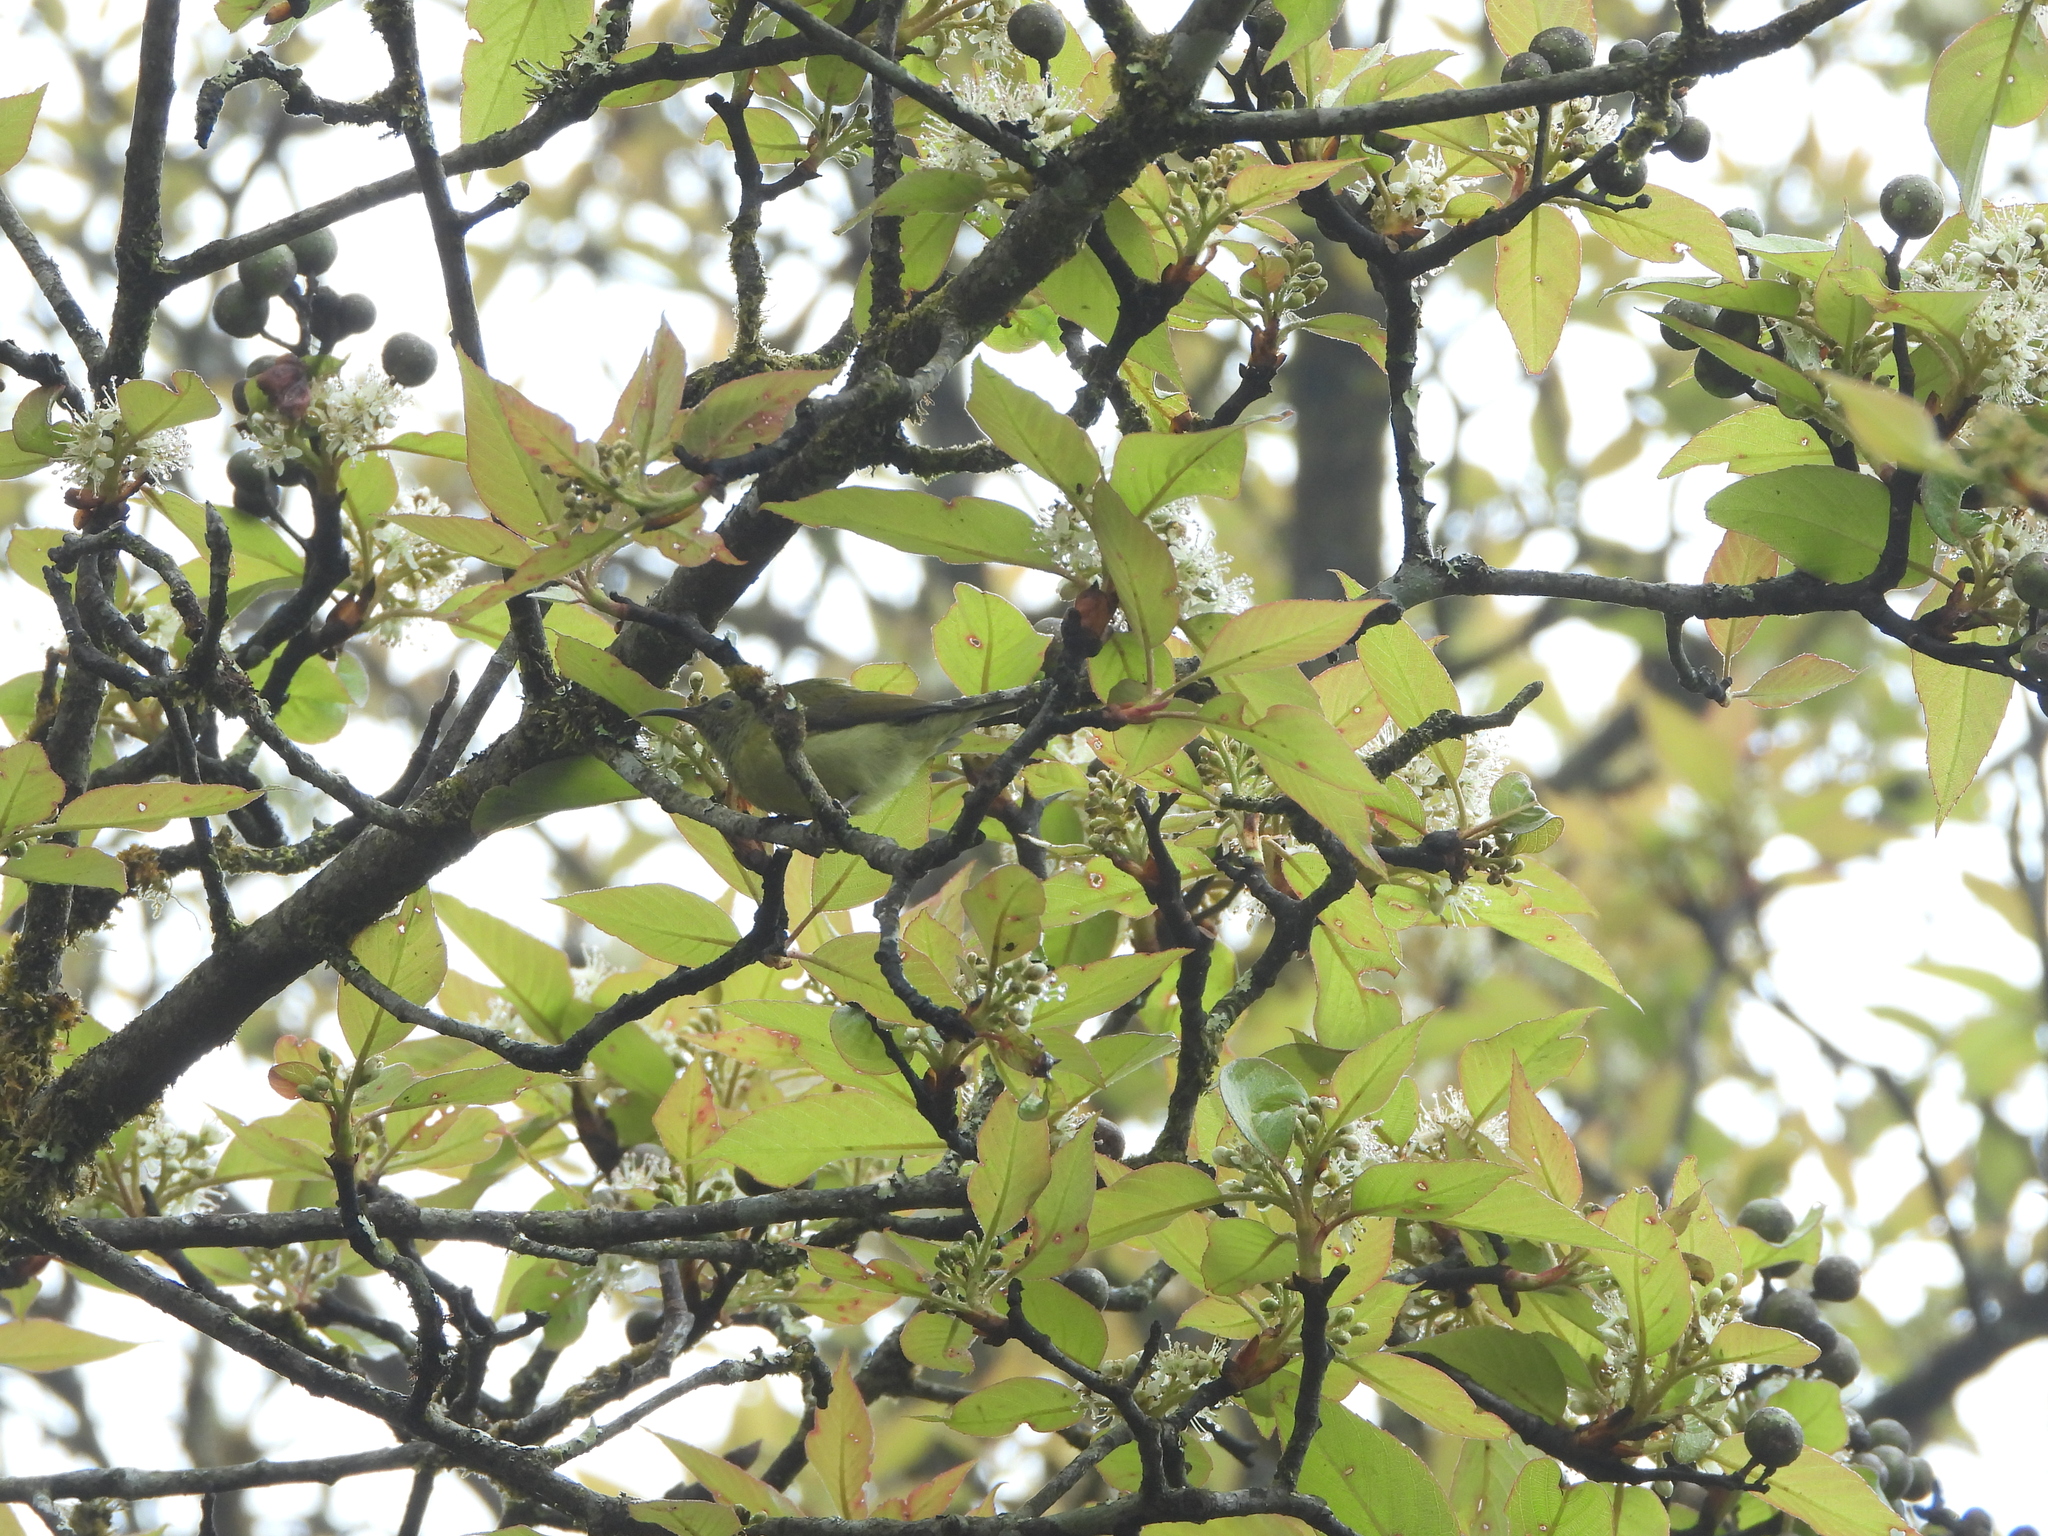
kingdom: Animalia
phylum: Chordata
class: Aves
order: Passeriformes
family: Nectariniidae
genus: Aethopyga
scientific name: Aethopyga nipalensis
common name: Green-tailed sunbird
